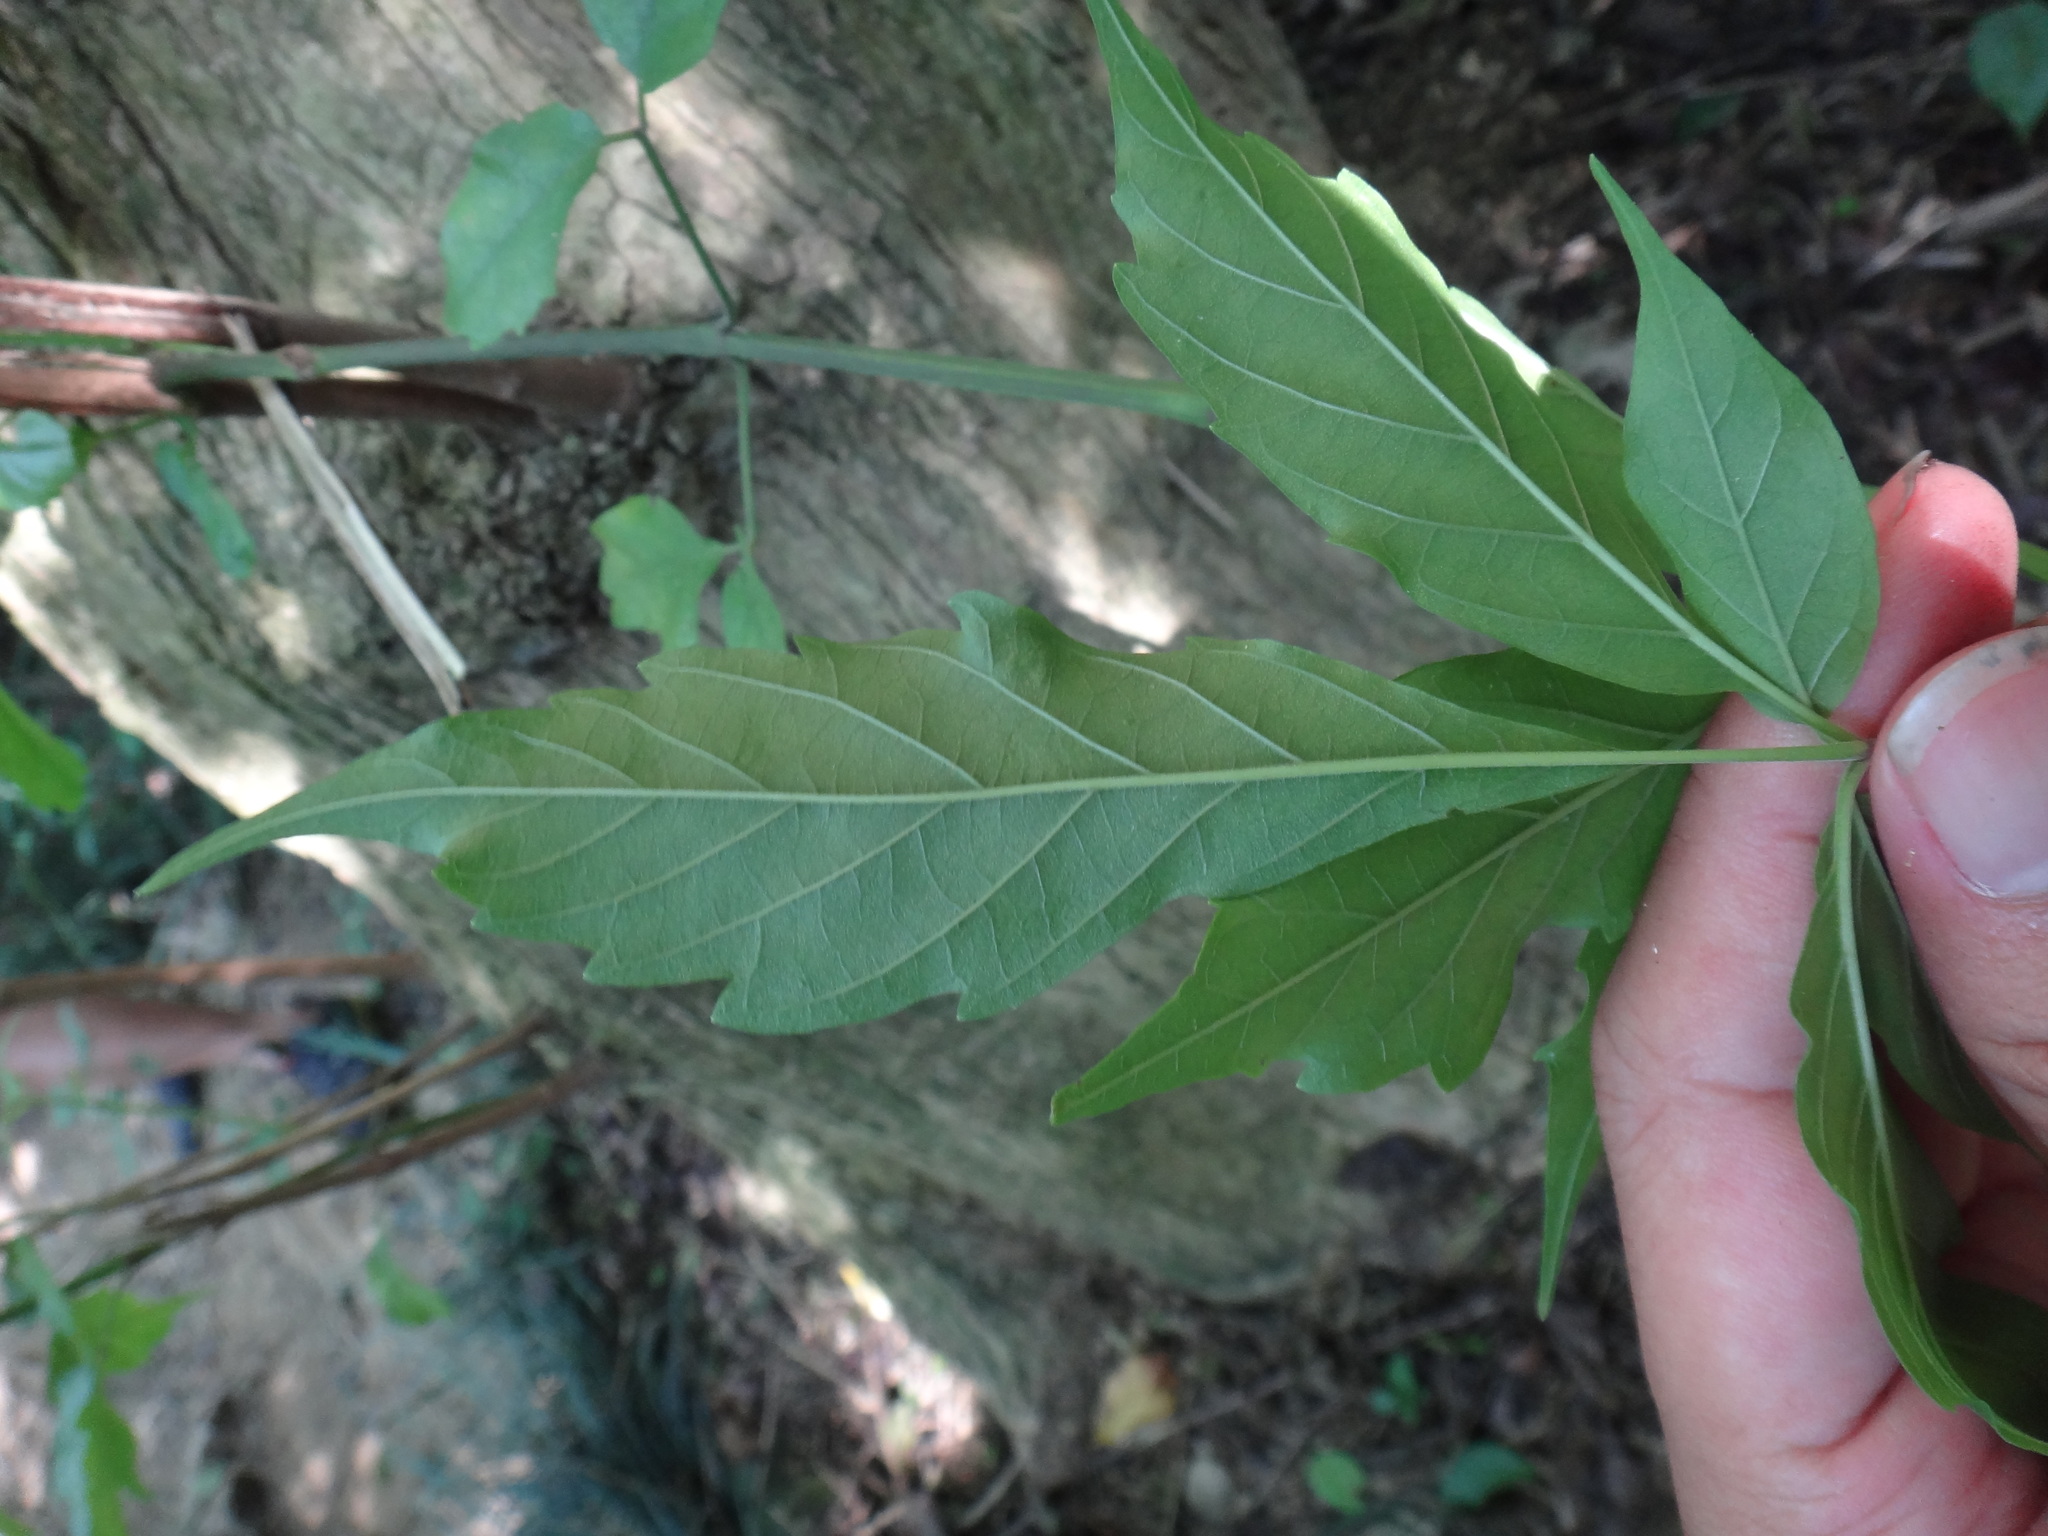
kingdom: Plantae
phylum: Tracheophyta
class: Magnoliopsida
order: Lamiales
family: Lamiaceae
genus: Vitex
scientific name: Vitex quinata
